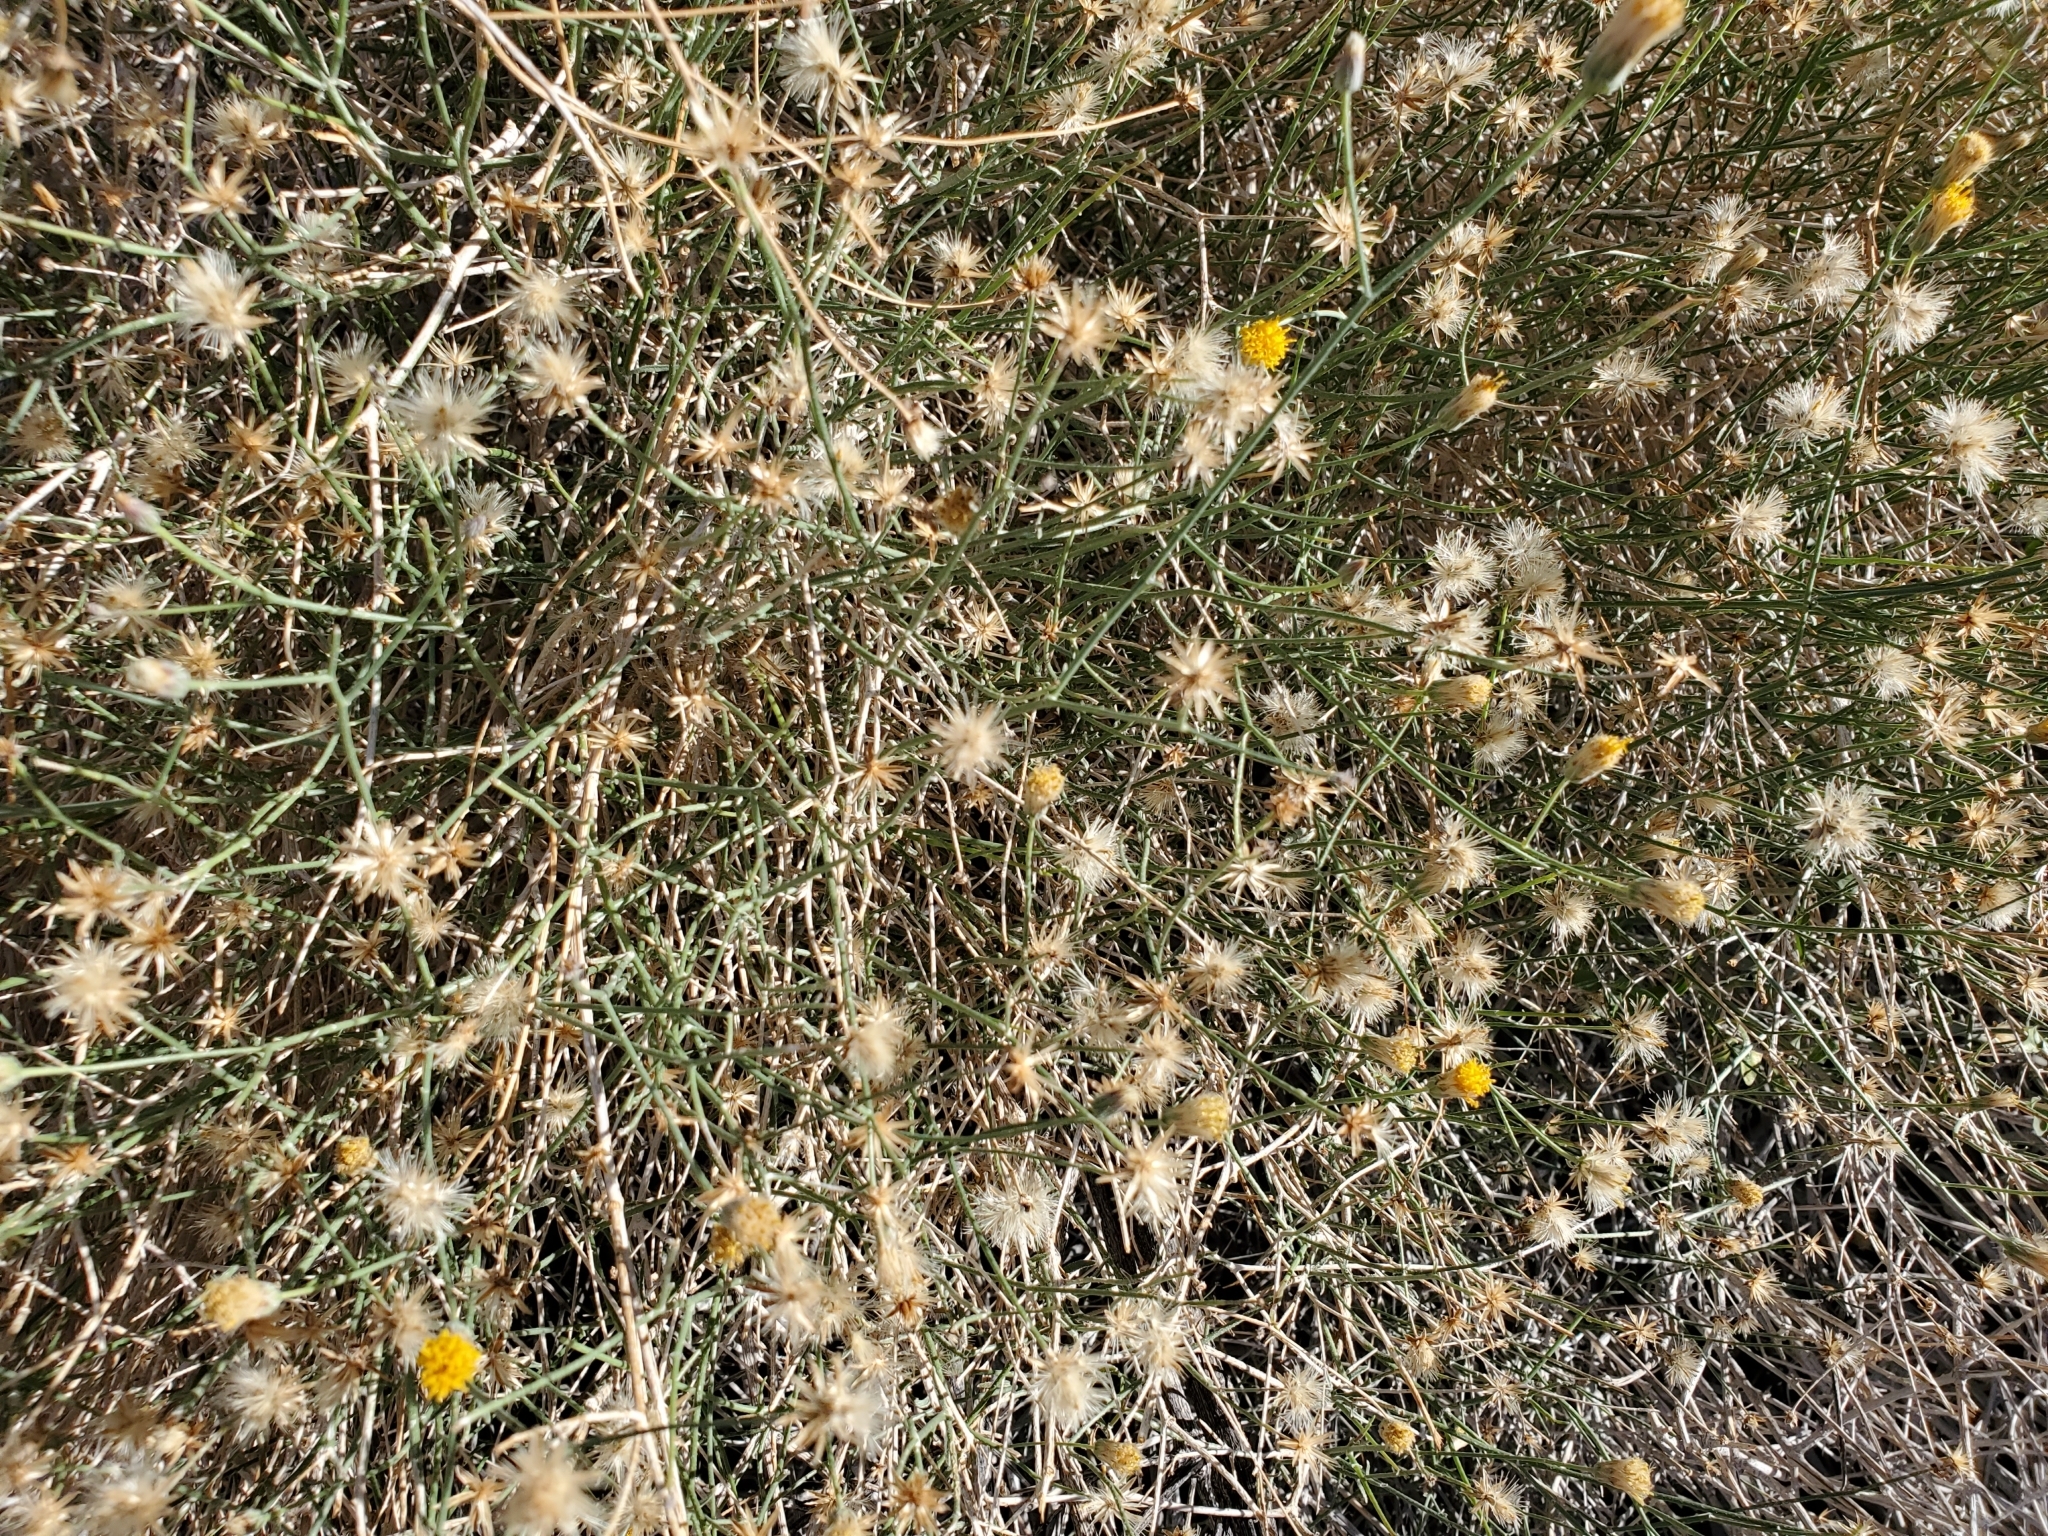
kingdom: Plantae
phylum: Tracheophyta
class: Magnoliopsida
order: Asterales
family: Asteraceae
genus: Bebbia
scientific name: Bebbia juncea
